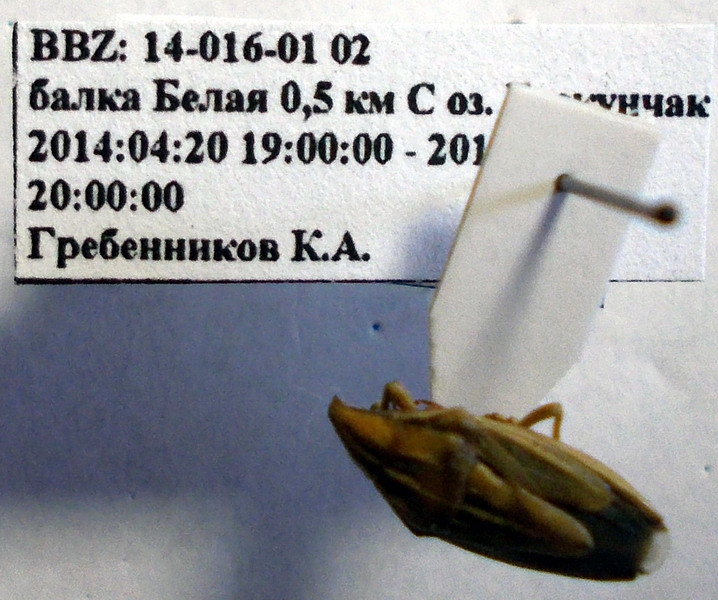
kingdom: Animalia
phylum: Arthropoda
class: Insecta
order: Hemiptera
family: Pentatomidae
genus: Aelia
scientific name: Aelia furcula
